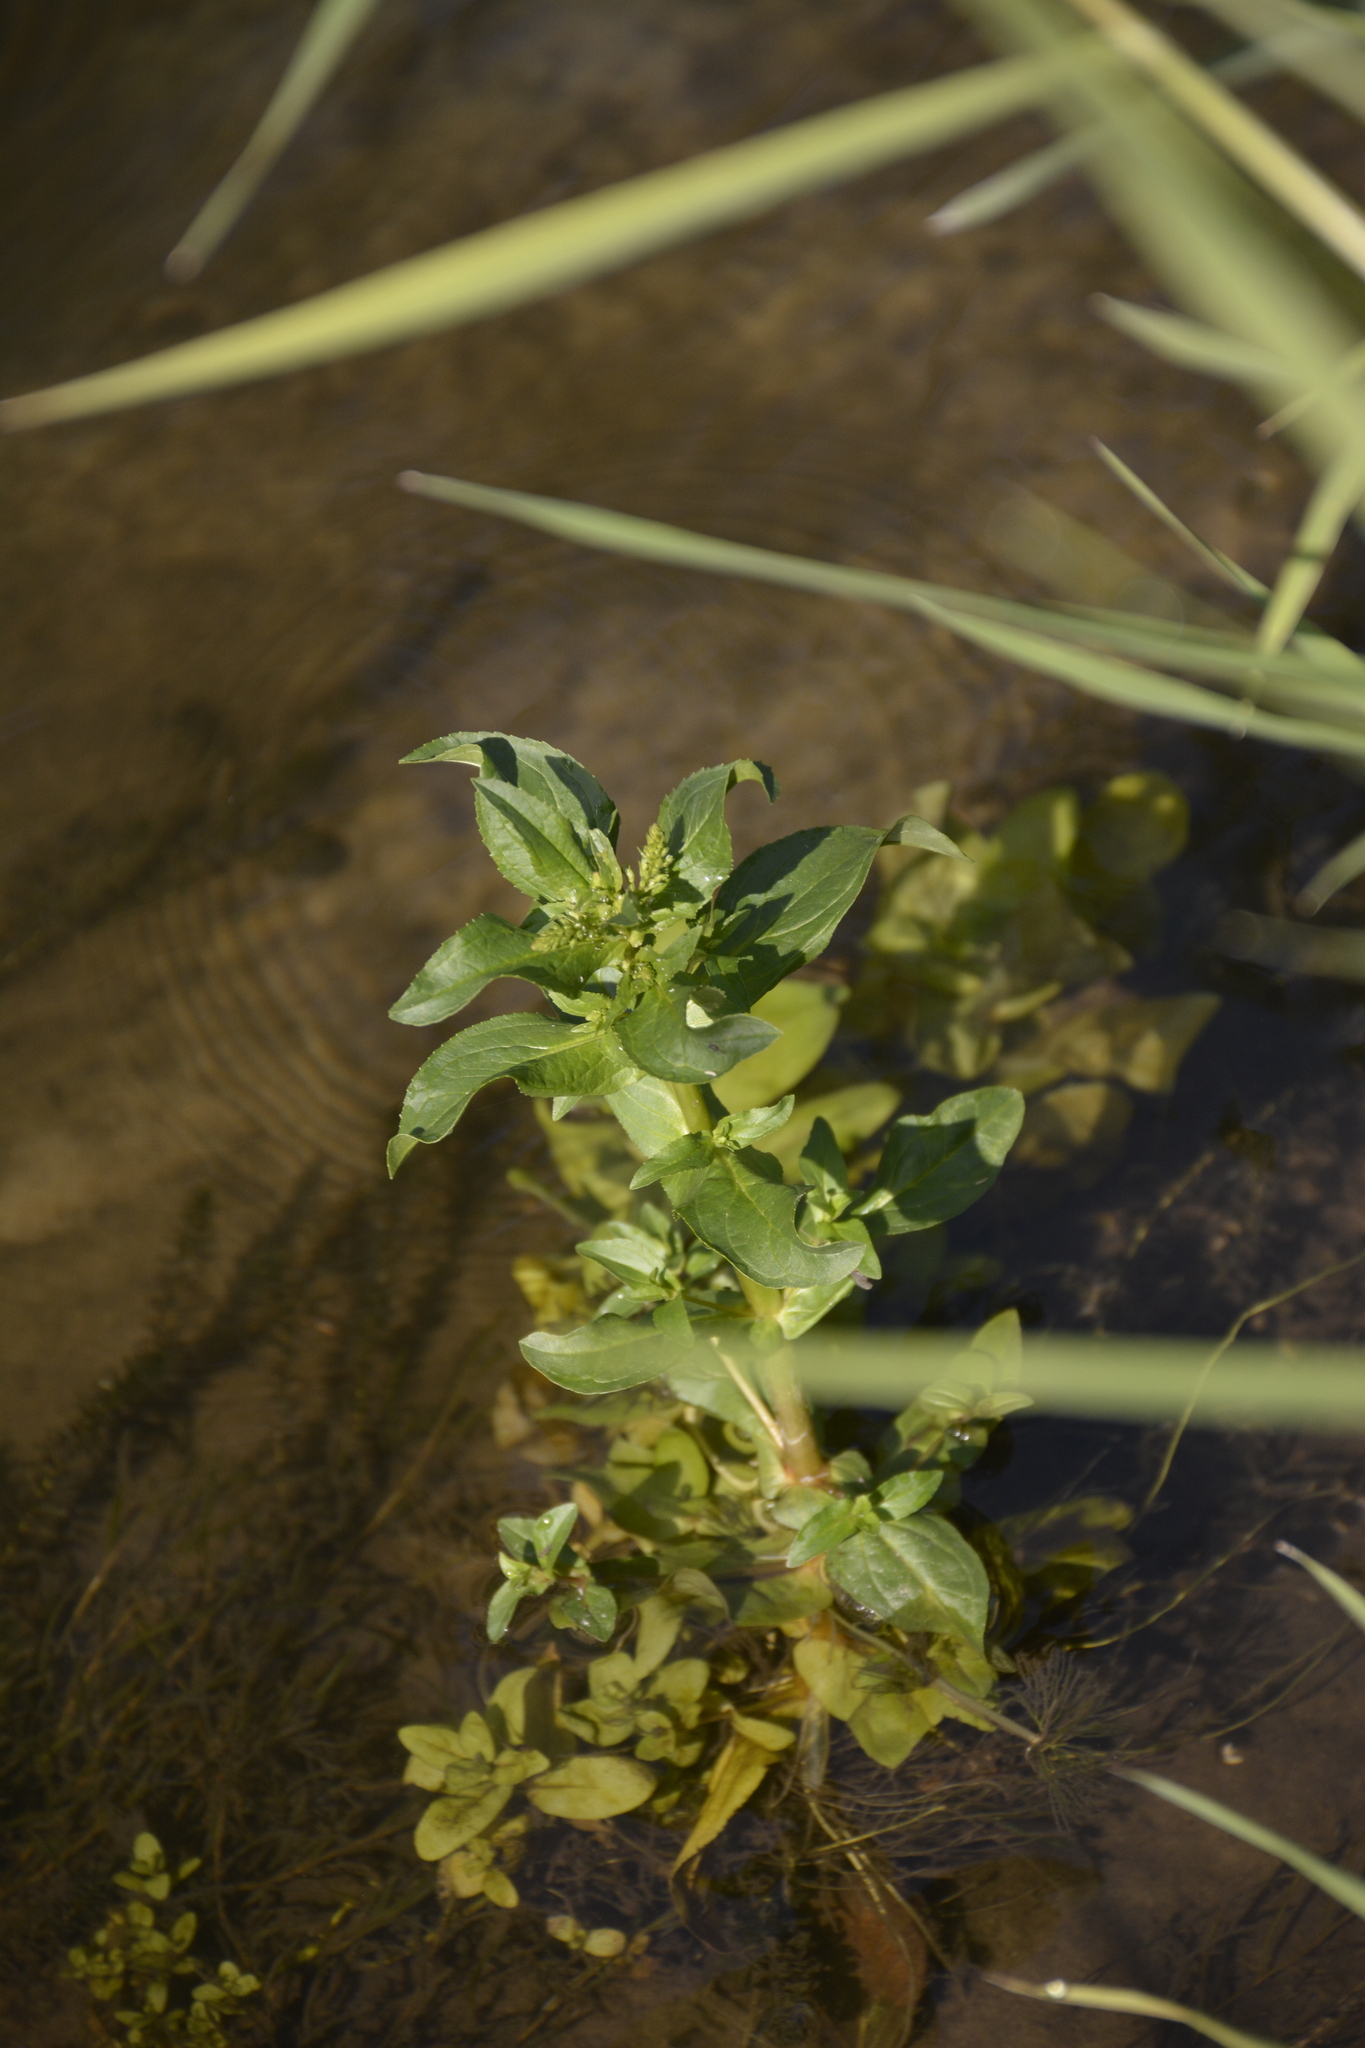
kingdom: Plantae
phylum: Tracheophyta
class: Magnoliopsida
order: Lamiales
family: Plantaginaceae
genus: Veronica
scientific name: Veronica anagallis-aquatica
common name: Water speedwell
